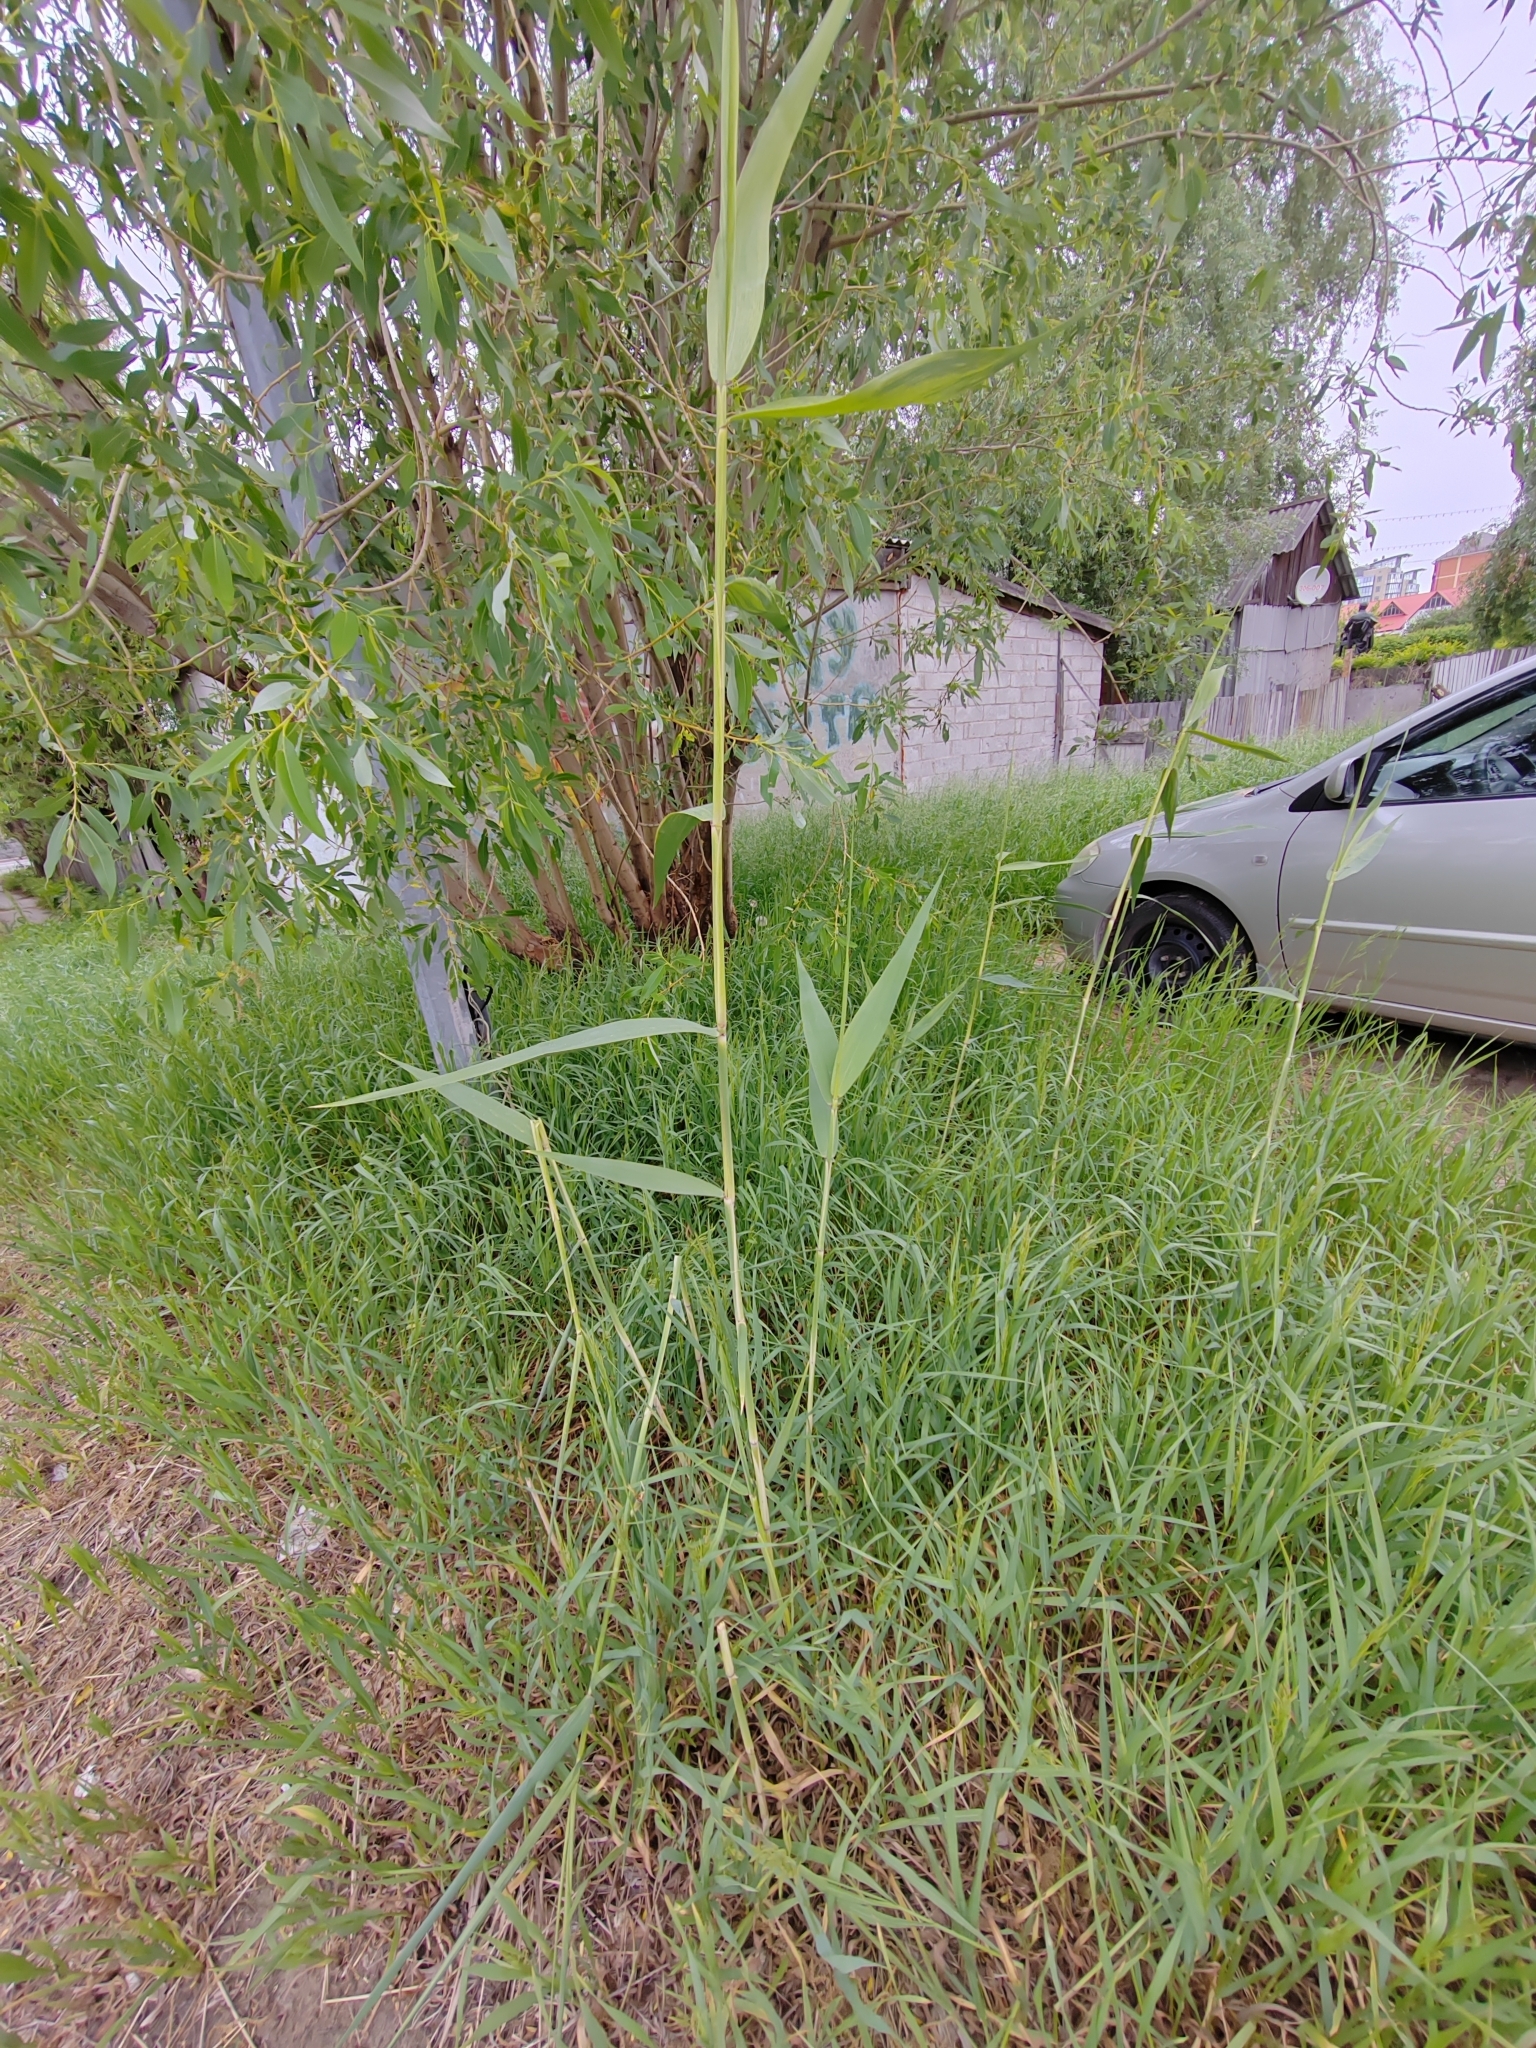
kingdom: Plantae
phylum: Tracheophyta
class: Liliopsida
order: Poales
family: Poaceae
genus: Phragmites
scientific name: Phragmites australis
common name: Common reed
